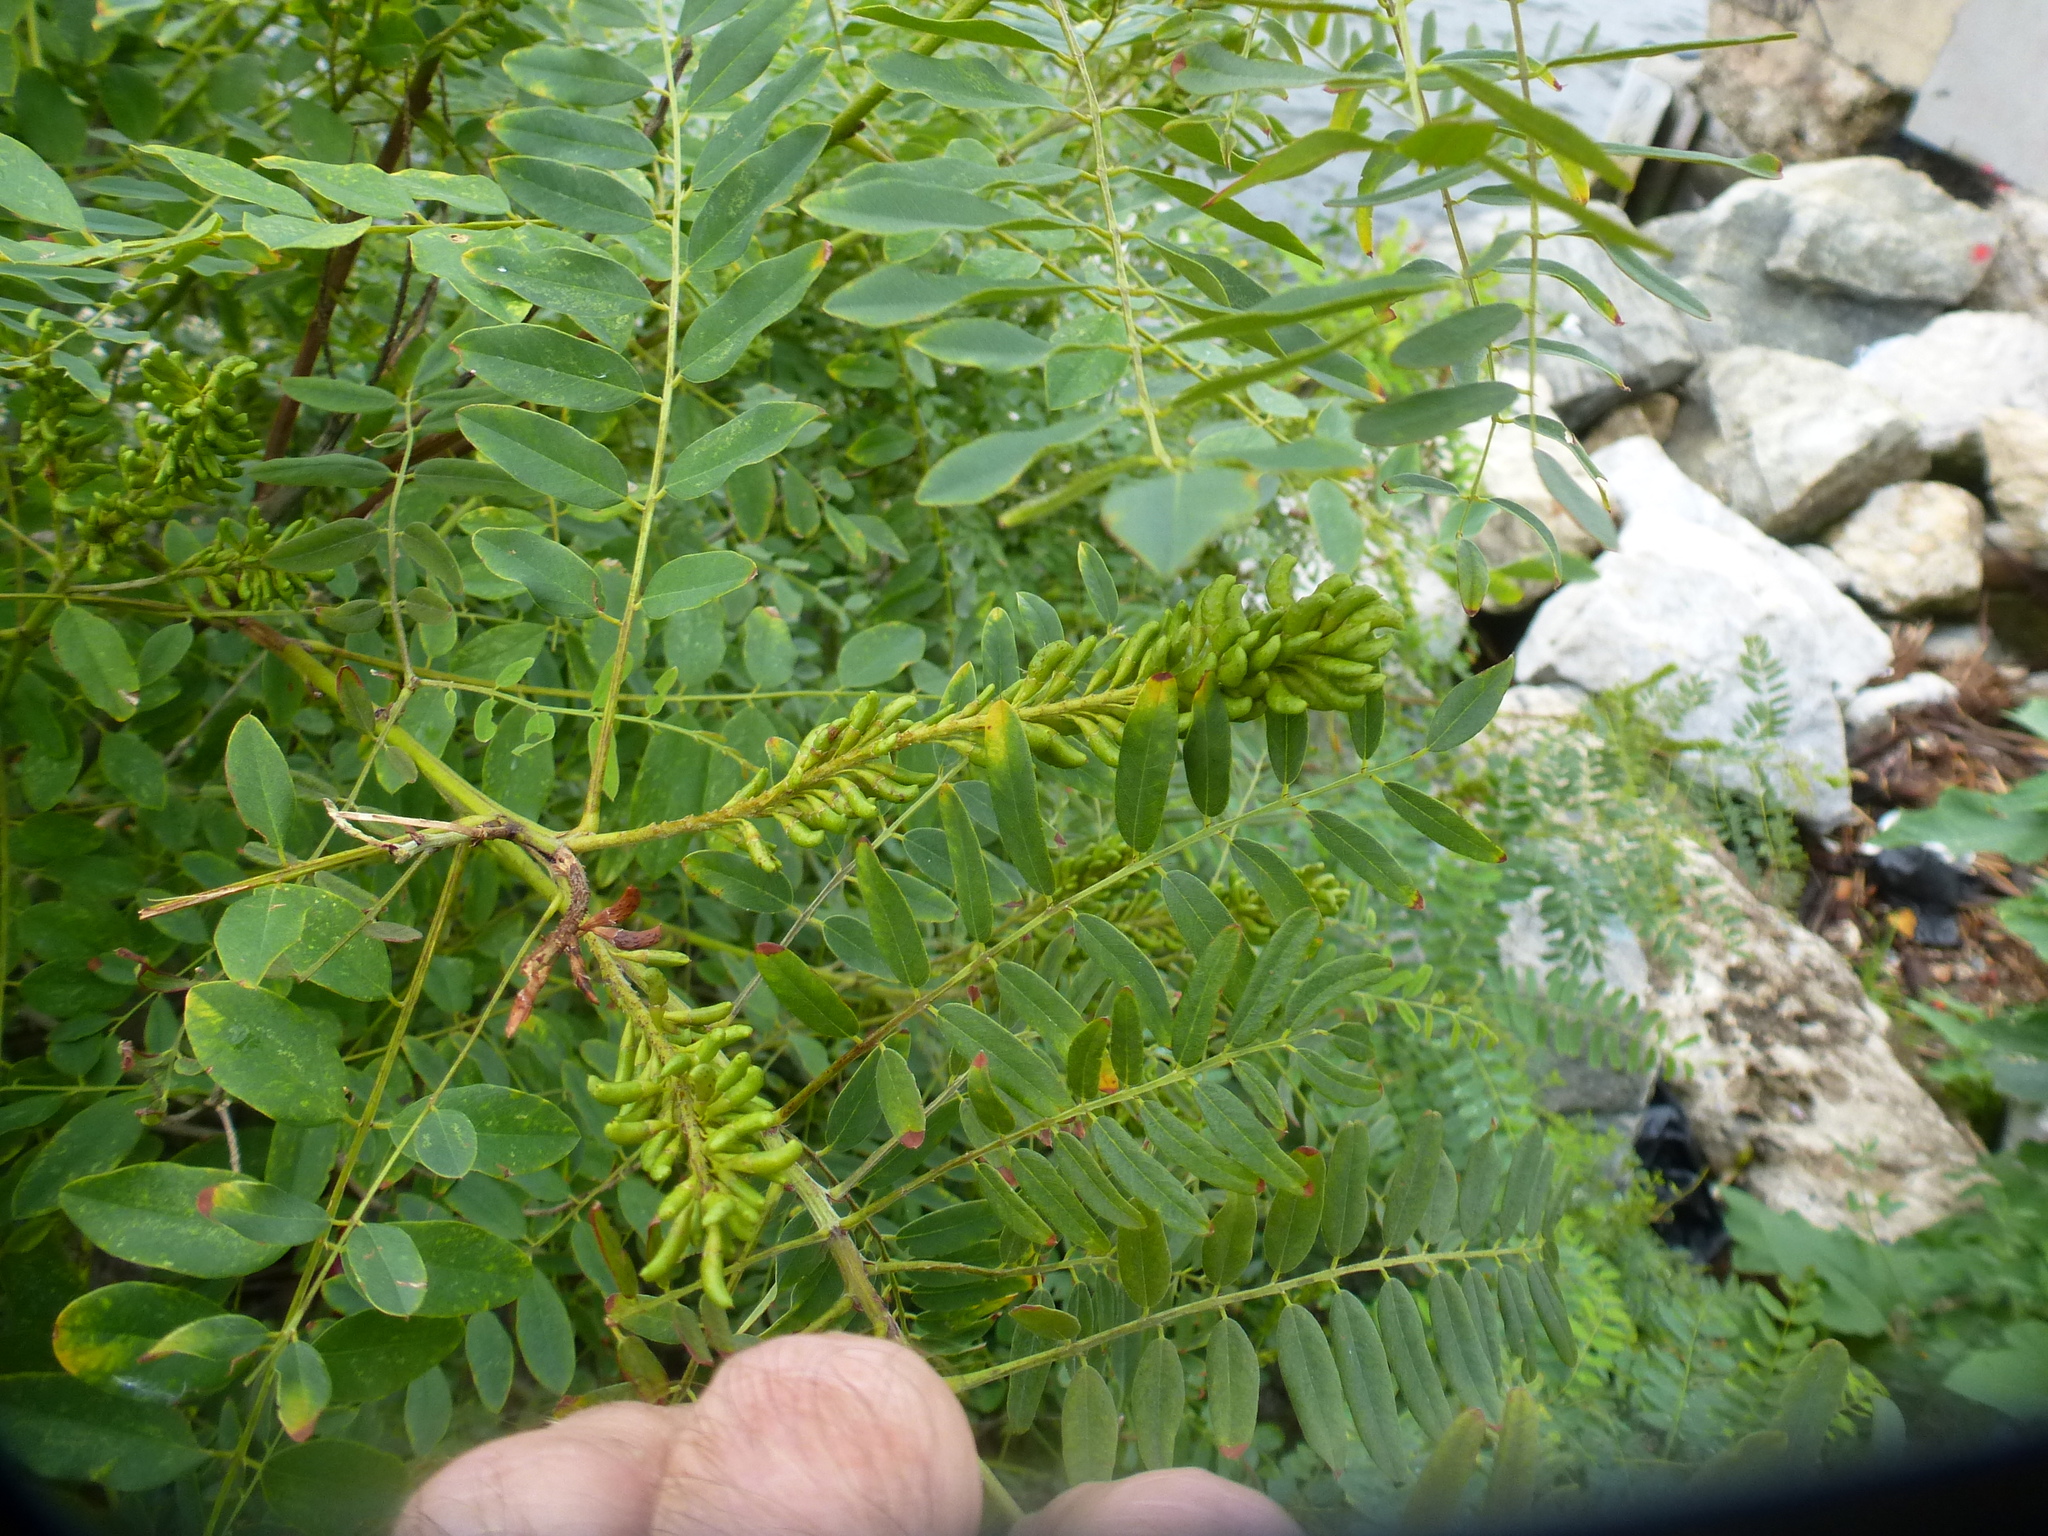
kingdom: Plantae
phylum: Tracheophyta
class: Magnoliopsida
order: Fabales
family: Fabaceae
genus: Amorpha
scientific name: Amorpha fruticosa
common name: False indigo
